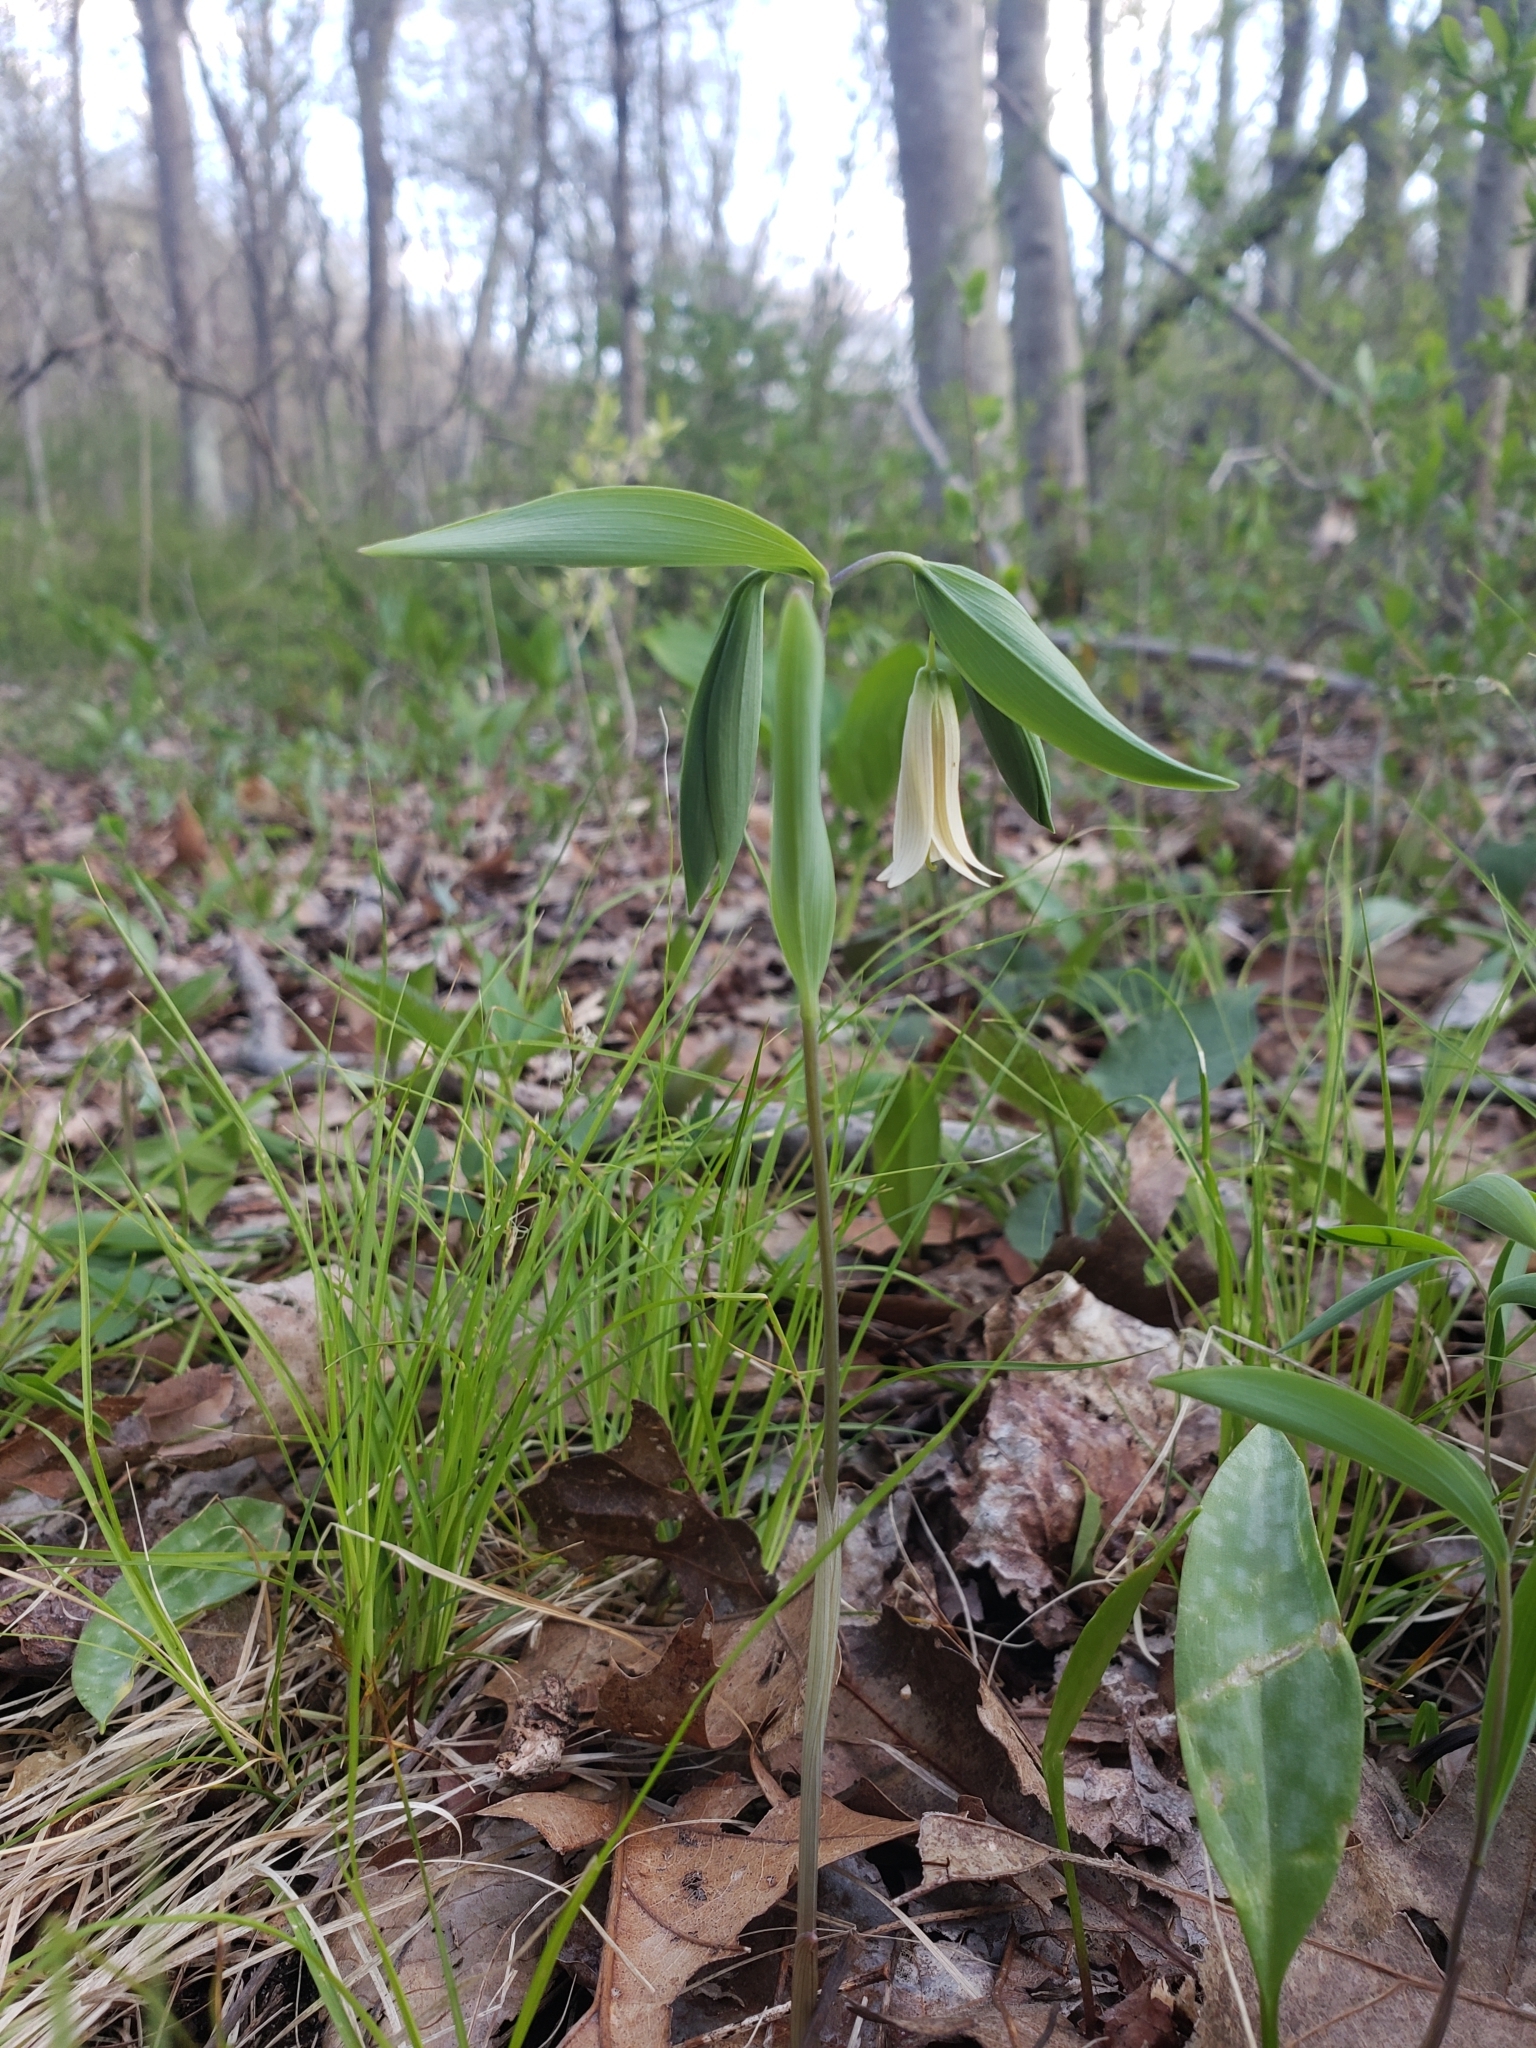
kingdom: Plantae
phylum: Tracheophyta
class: Liliopsida
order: Liliales
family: Colchicaceae
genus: Uvularia
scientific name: Uvularia sessilifolia
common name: Straw-lily
